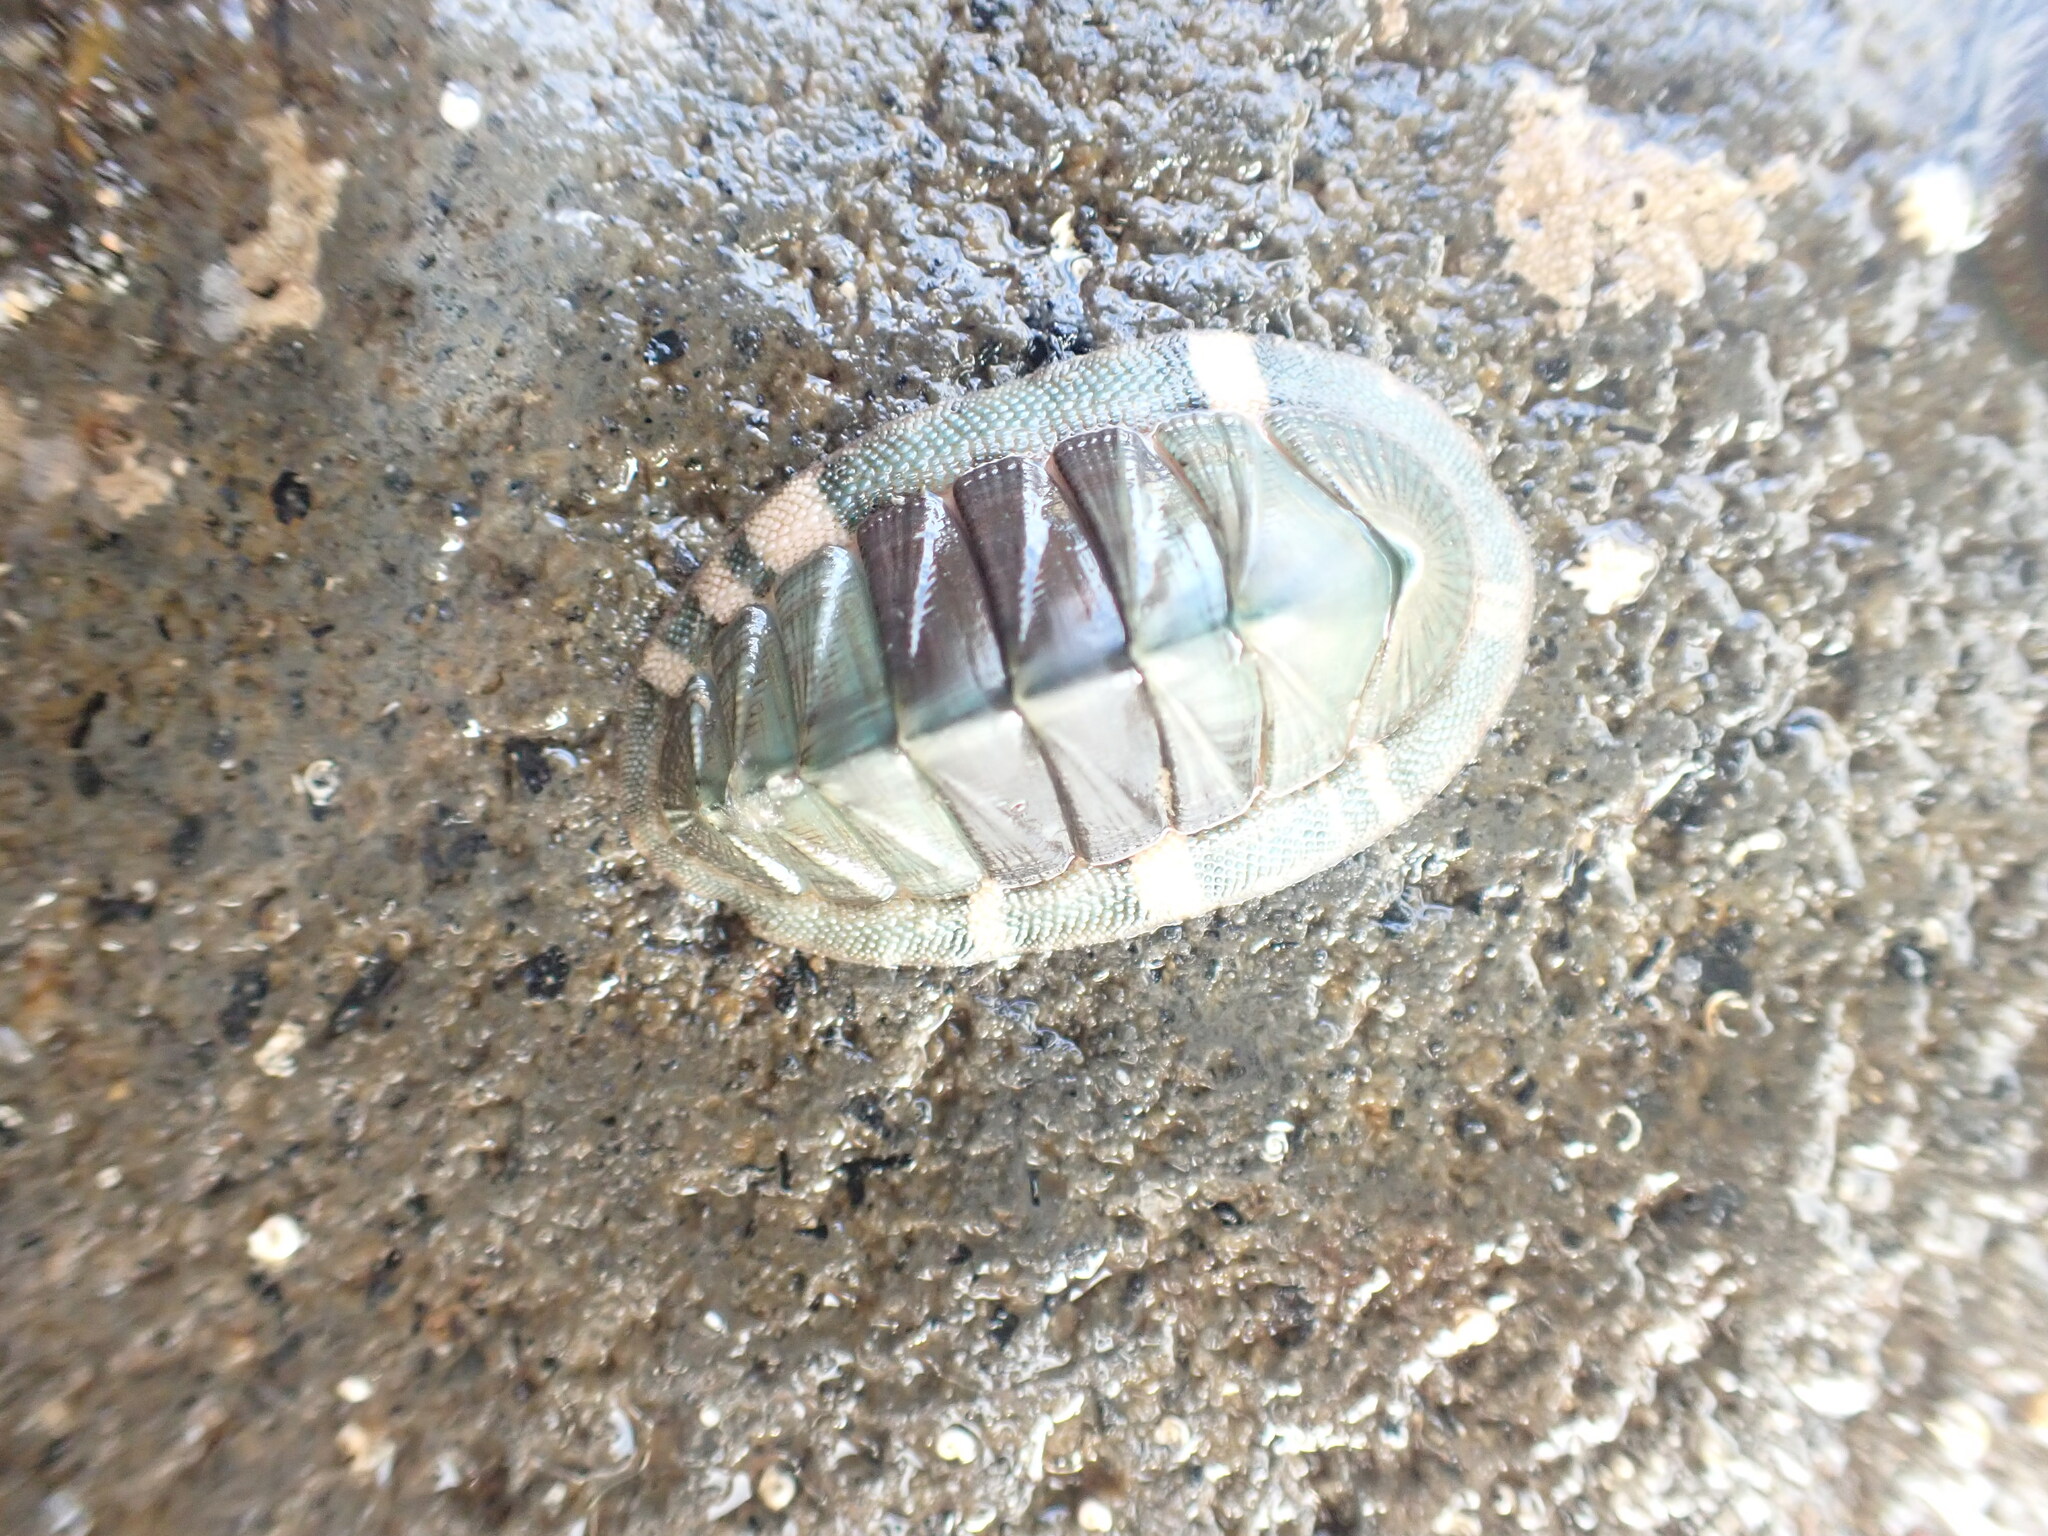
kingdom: Animalia
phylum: Mollusca
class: Polyplacophora
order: Chitonida
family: Chitonidae
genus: Rhyssoplax
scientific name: Rhyssoplax aerea
